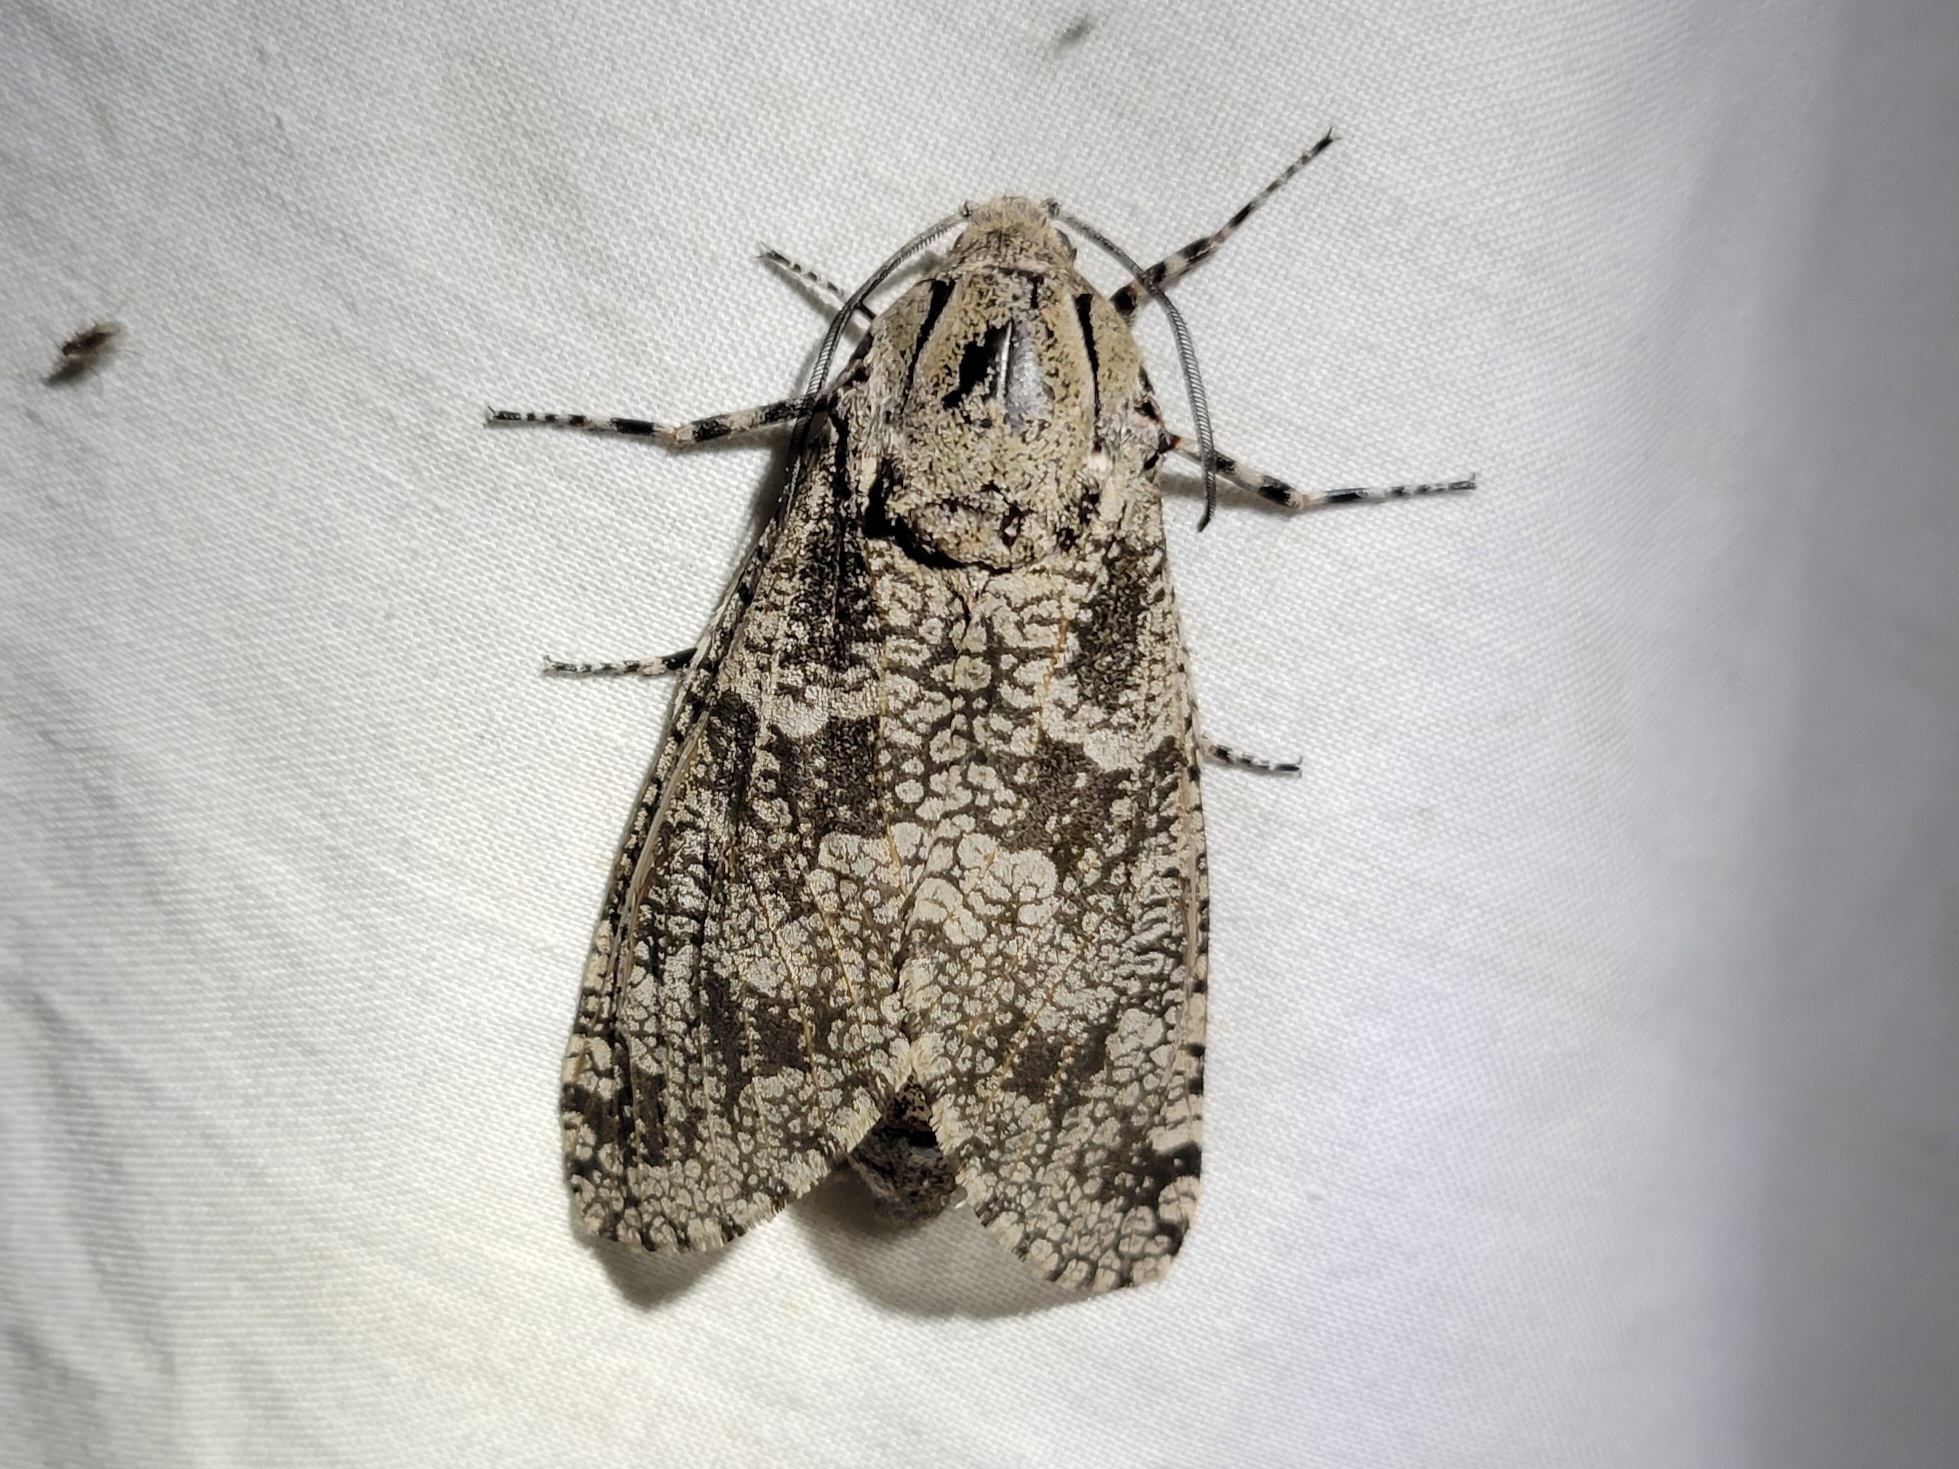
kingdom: Animalia
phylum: Arthropoda
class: Insecta
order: Lepidoptera
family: Cossidae
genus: Prionoxystus
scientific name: Prionoxystus robiniae
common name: Carpenterworm
